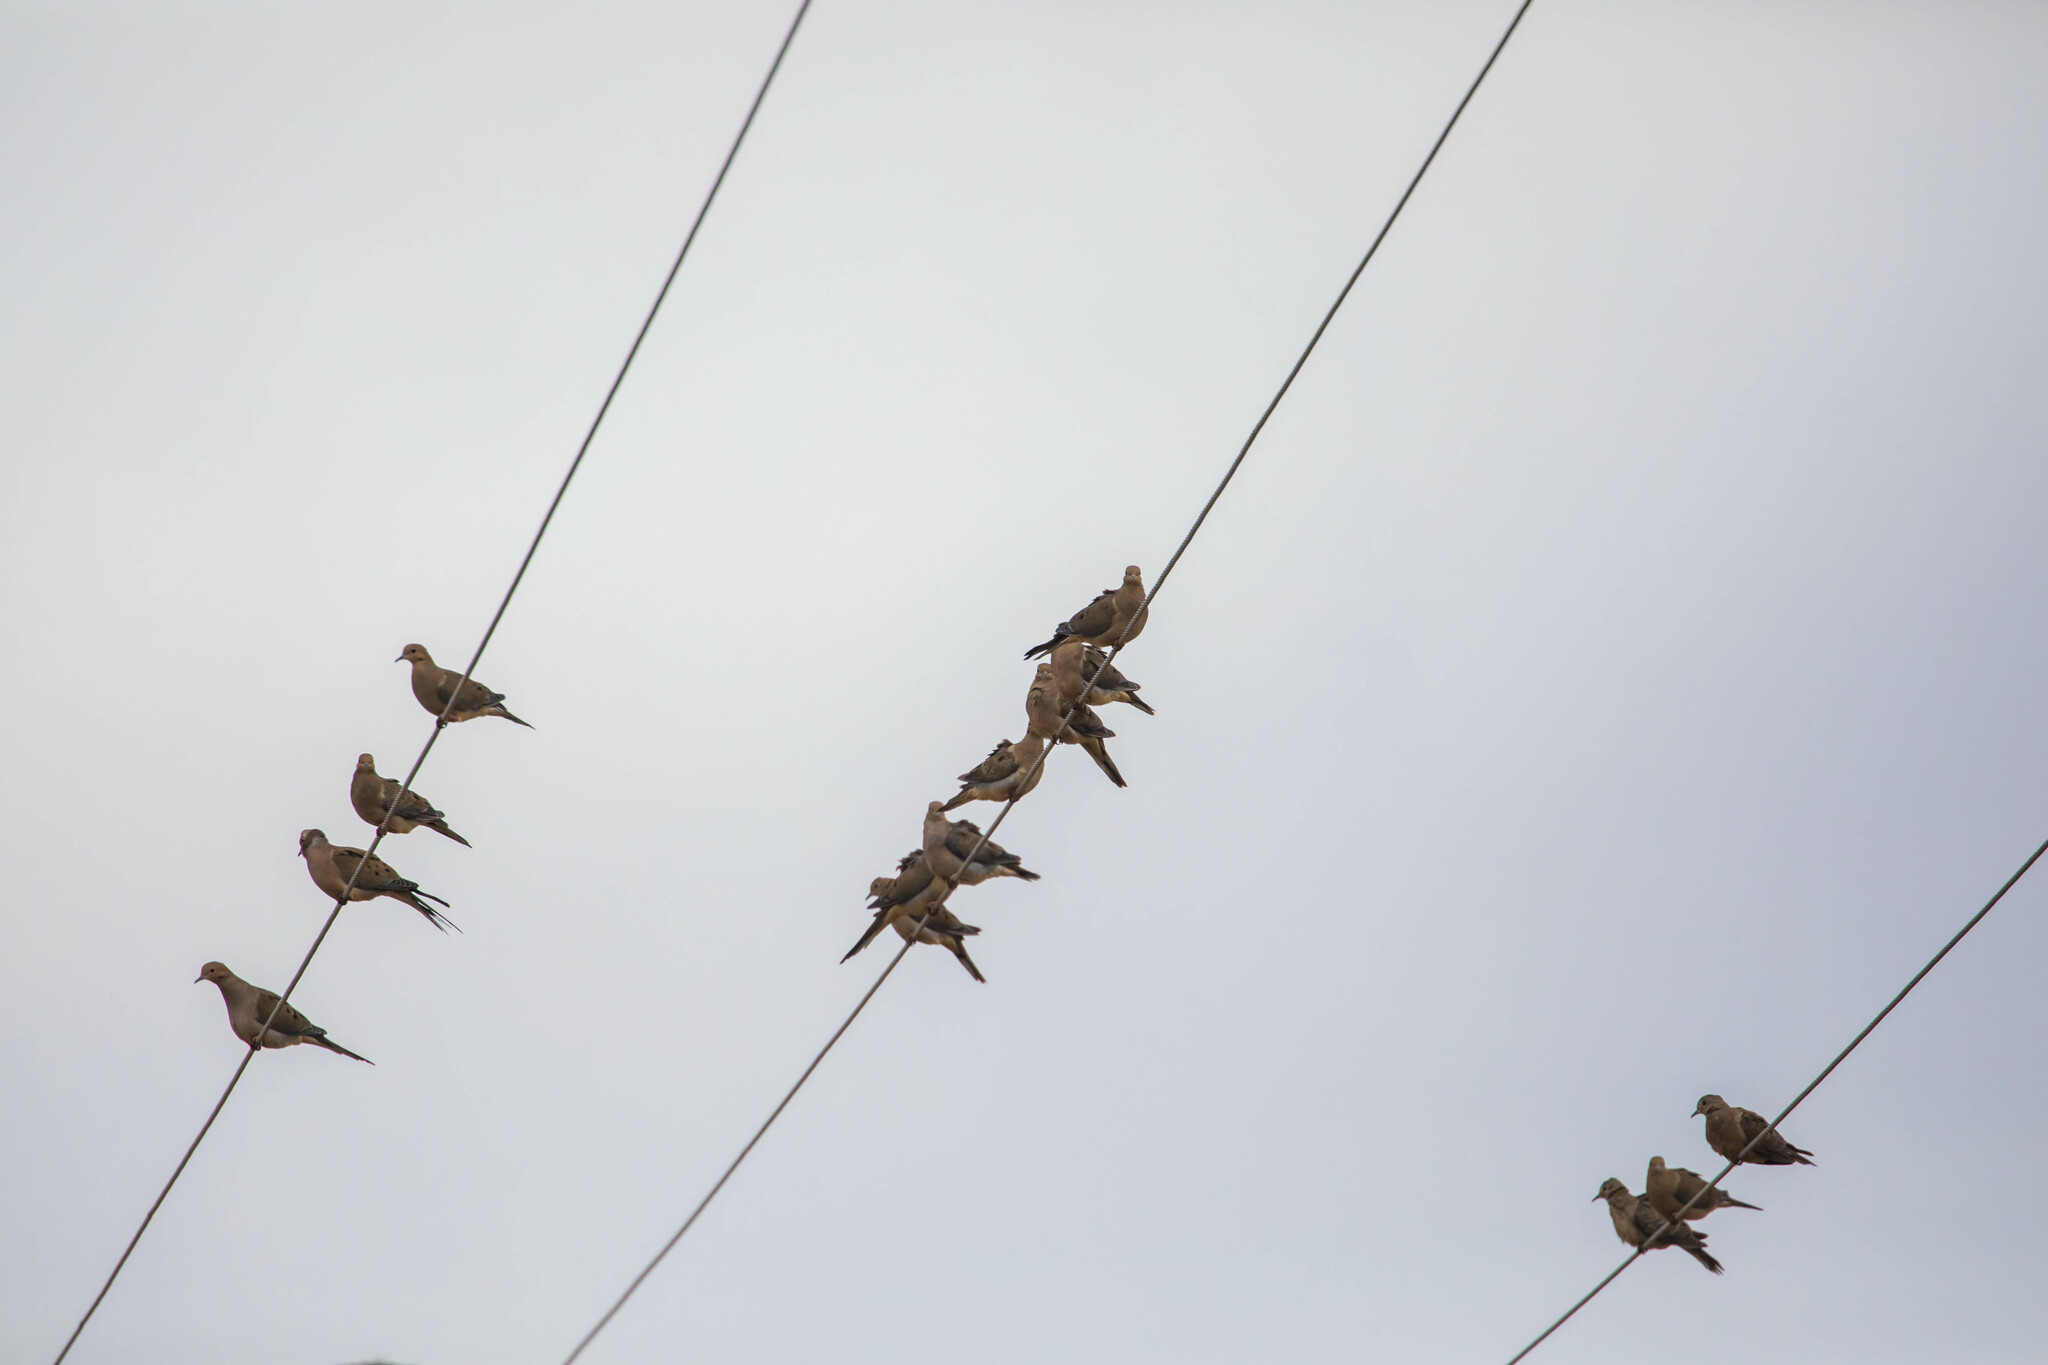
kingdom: Animalia
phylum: Chordata
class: Aves
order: Columbiformes
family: Columbidae
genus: Zenaida
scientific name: Zenaida macroura
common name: Mourning dove
